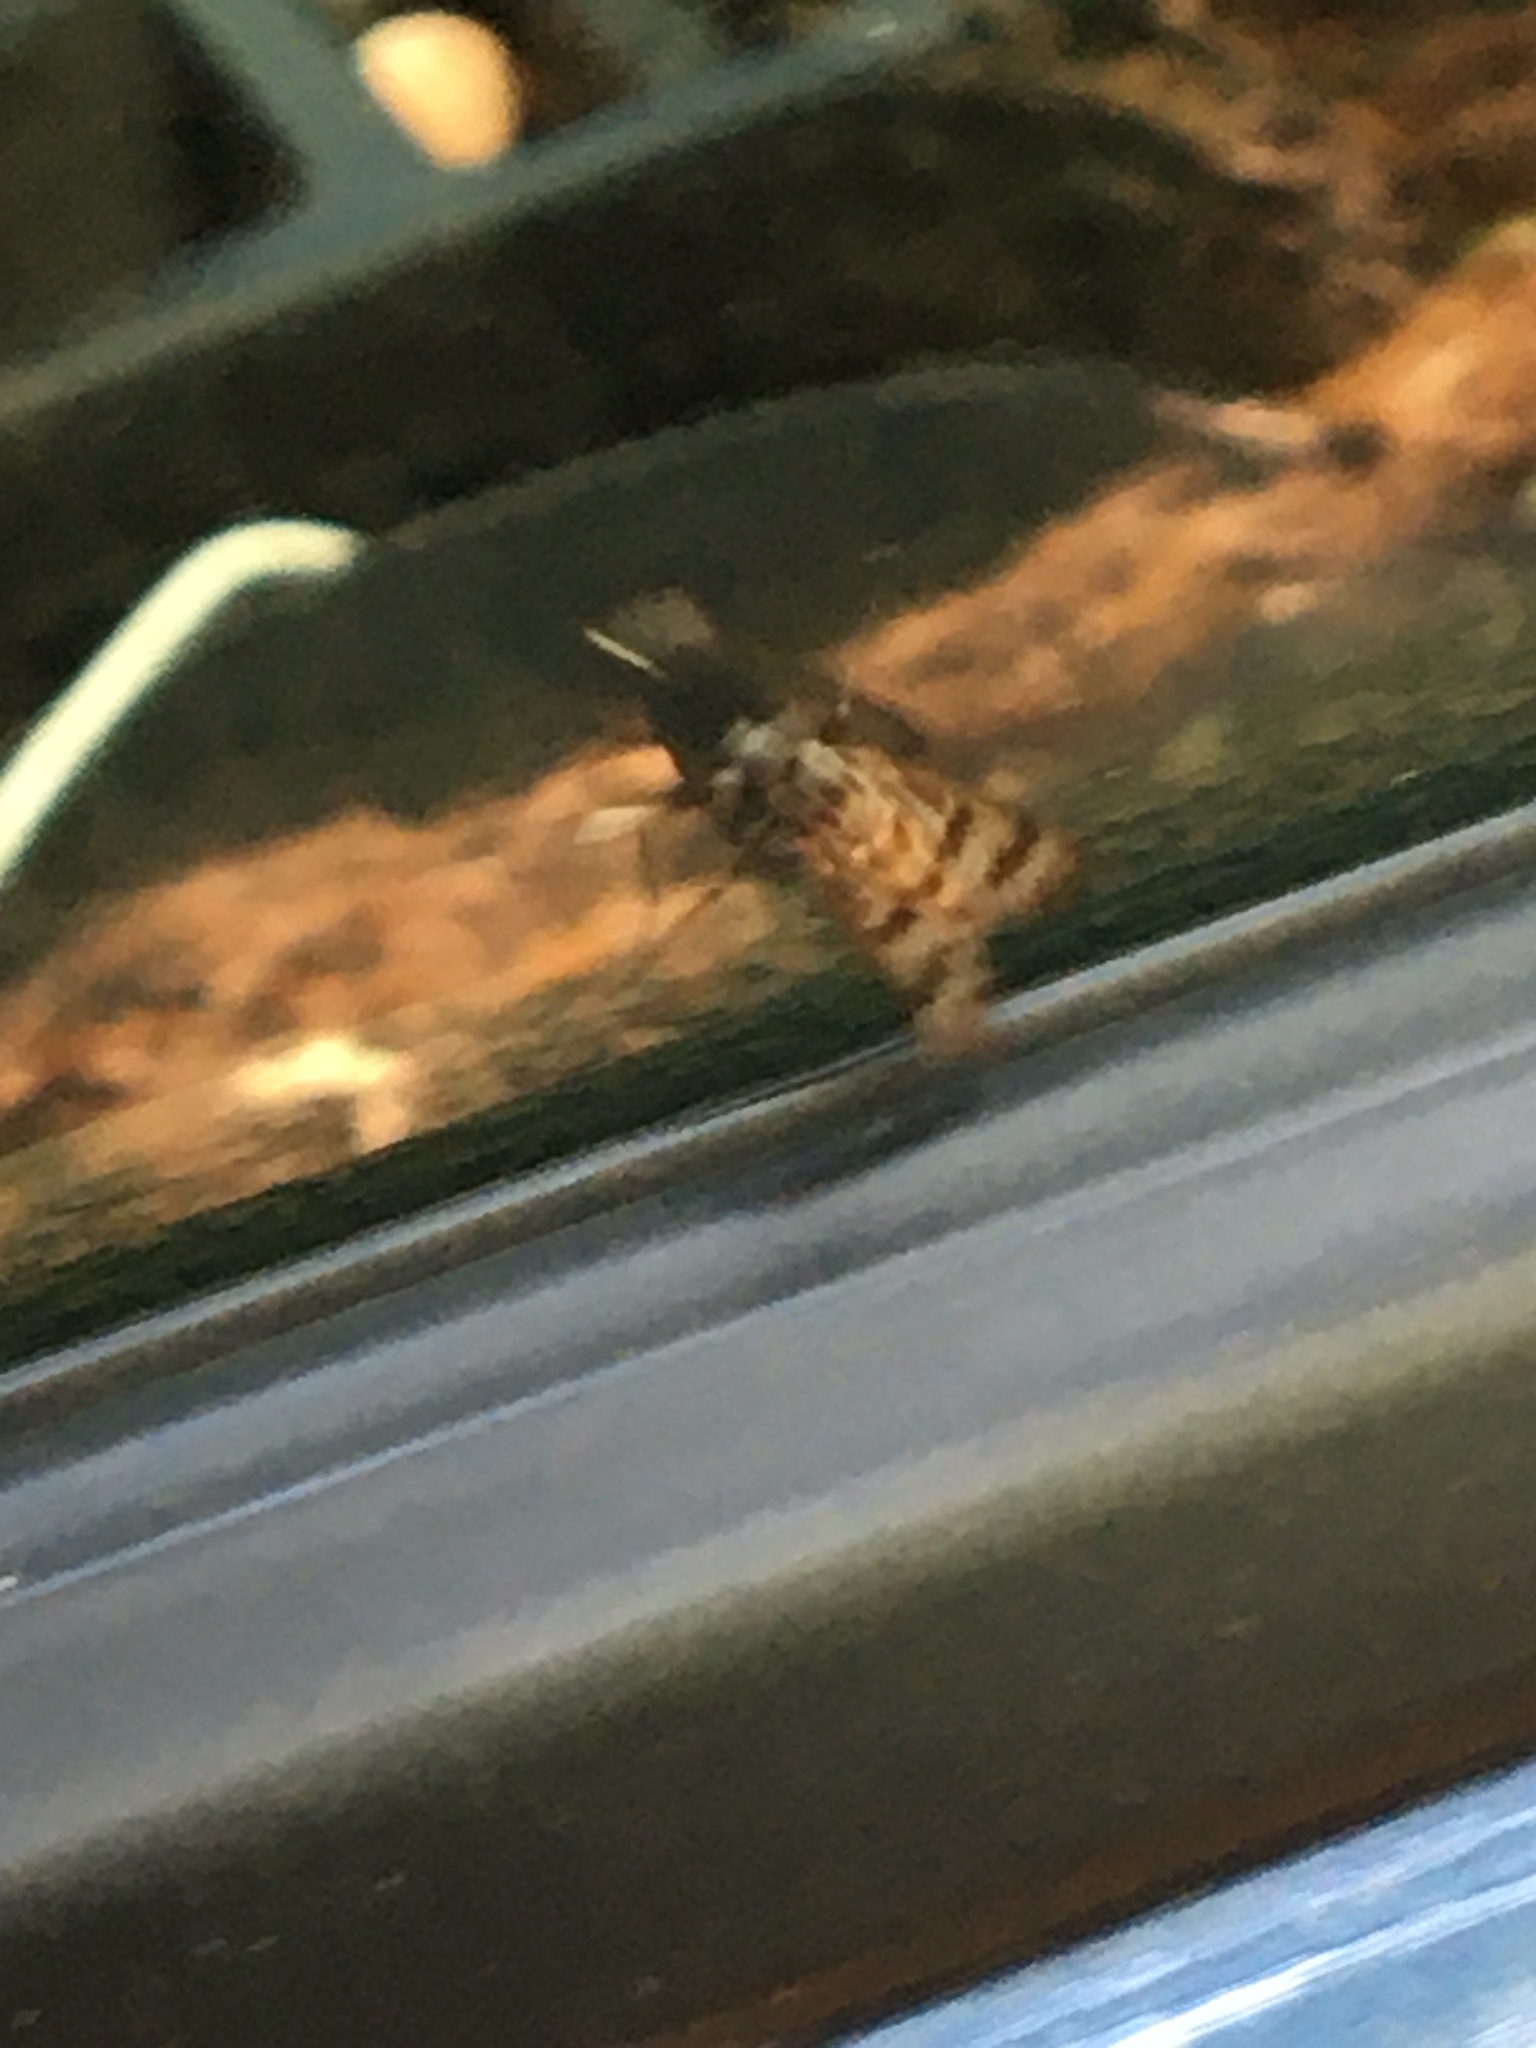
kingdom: Animalia
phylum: Arthropoda
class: Insecta
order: Diptera
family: Rhagionidae
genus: Rhagio
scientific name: Rhagio mystaceus
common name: Common snipe fly
